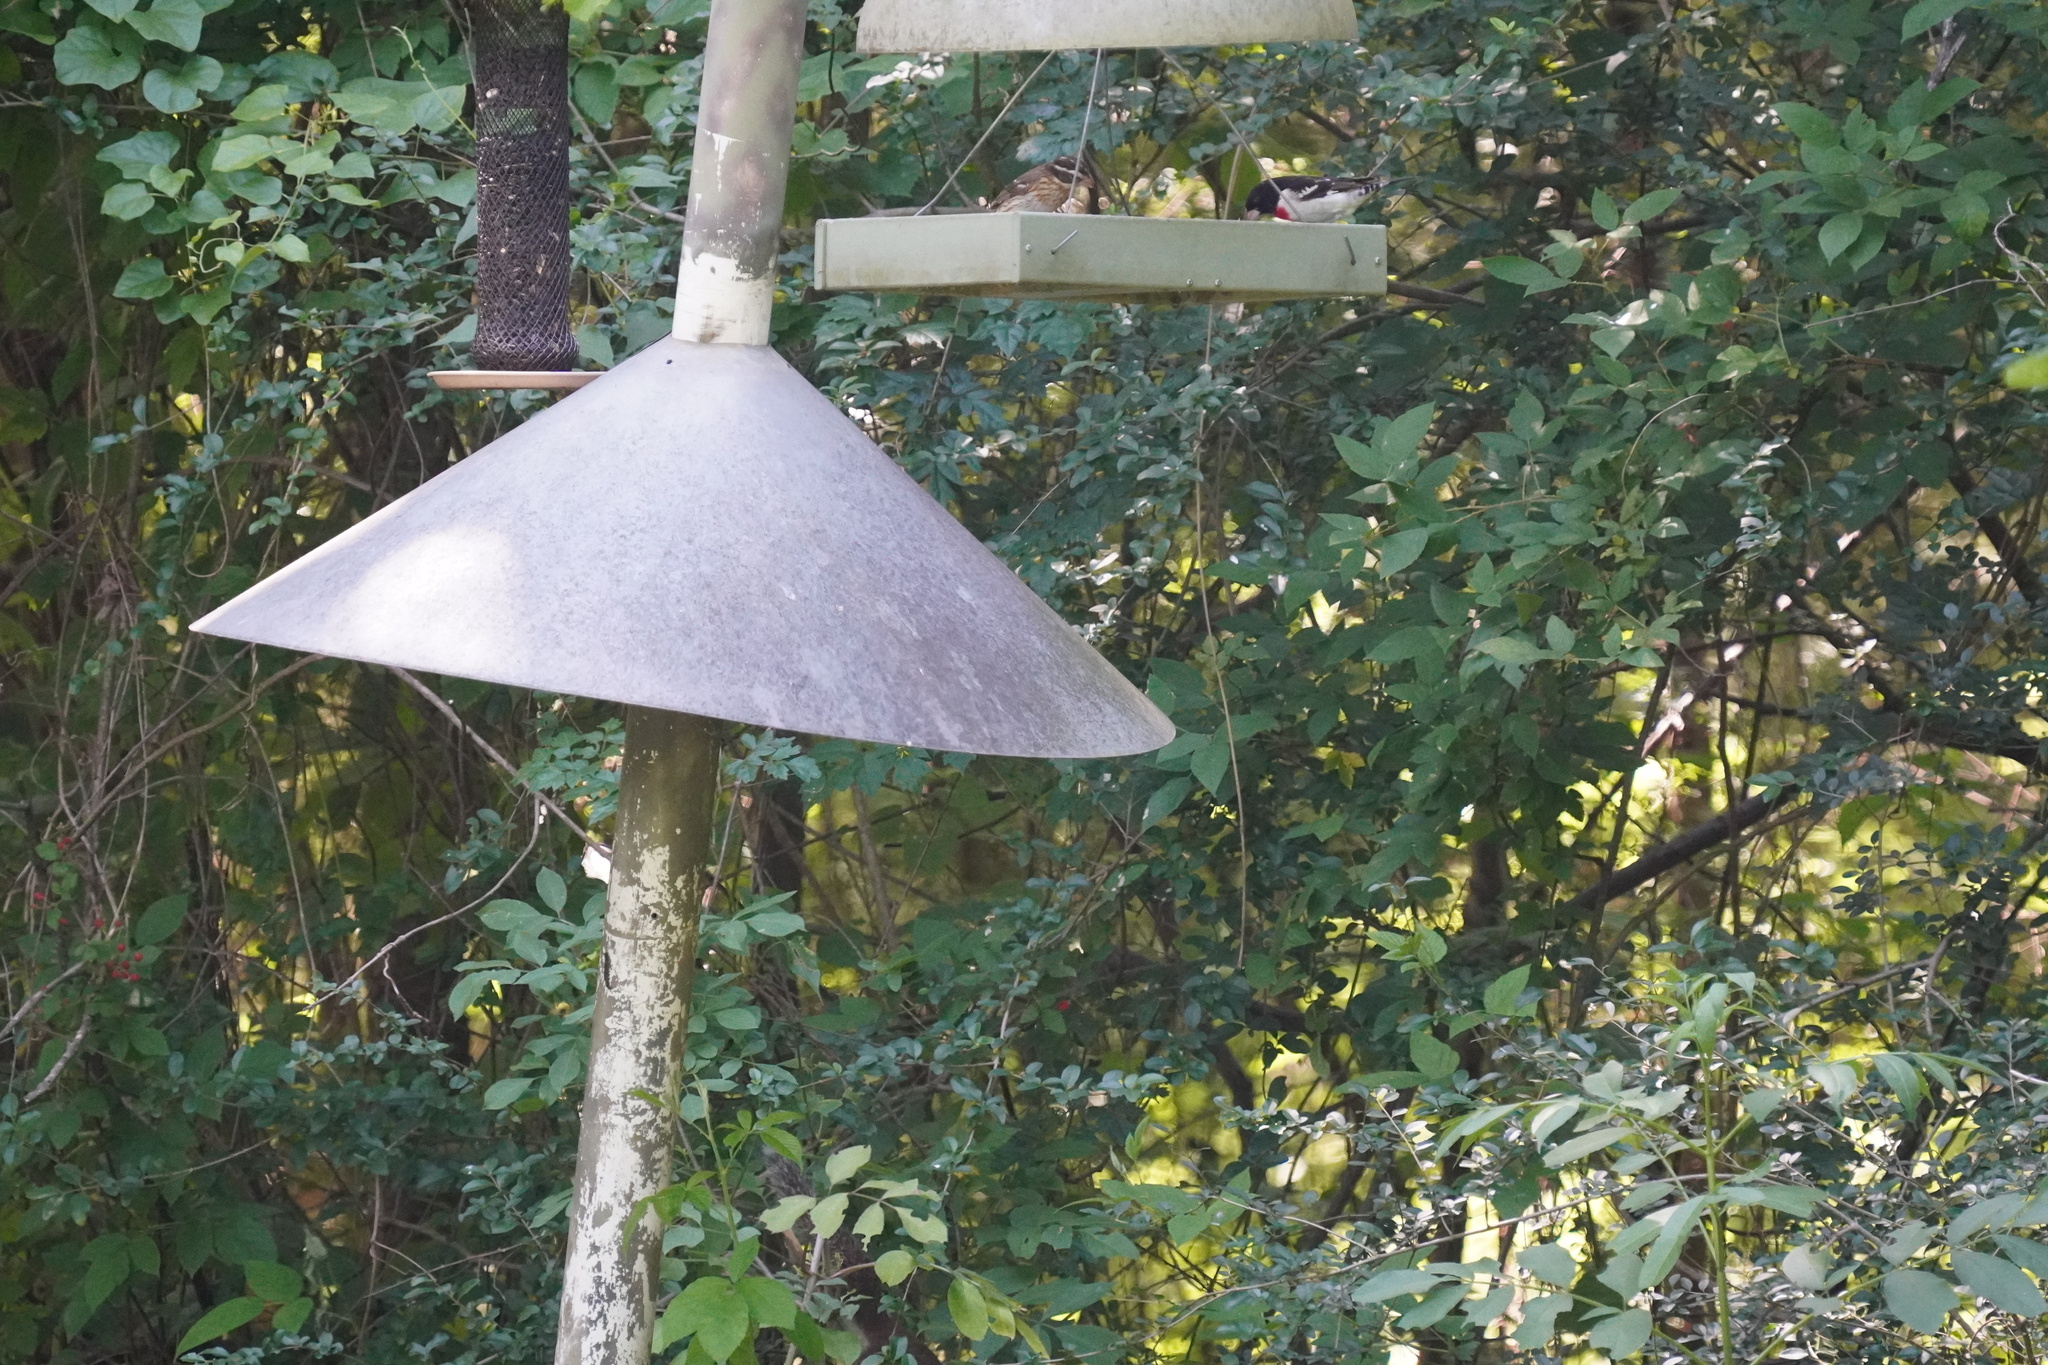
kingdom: Animalia
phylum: Chordata
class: Aves
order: Passeriformes
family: Cardinalidae
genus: Pheucticus
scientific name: Pheucticus ludovicianus
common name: Rose-breasted grosbeak
